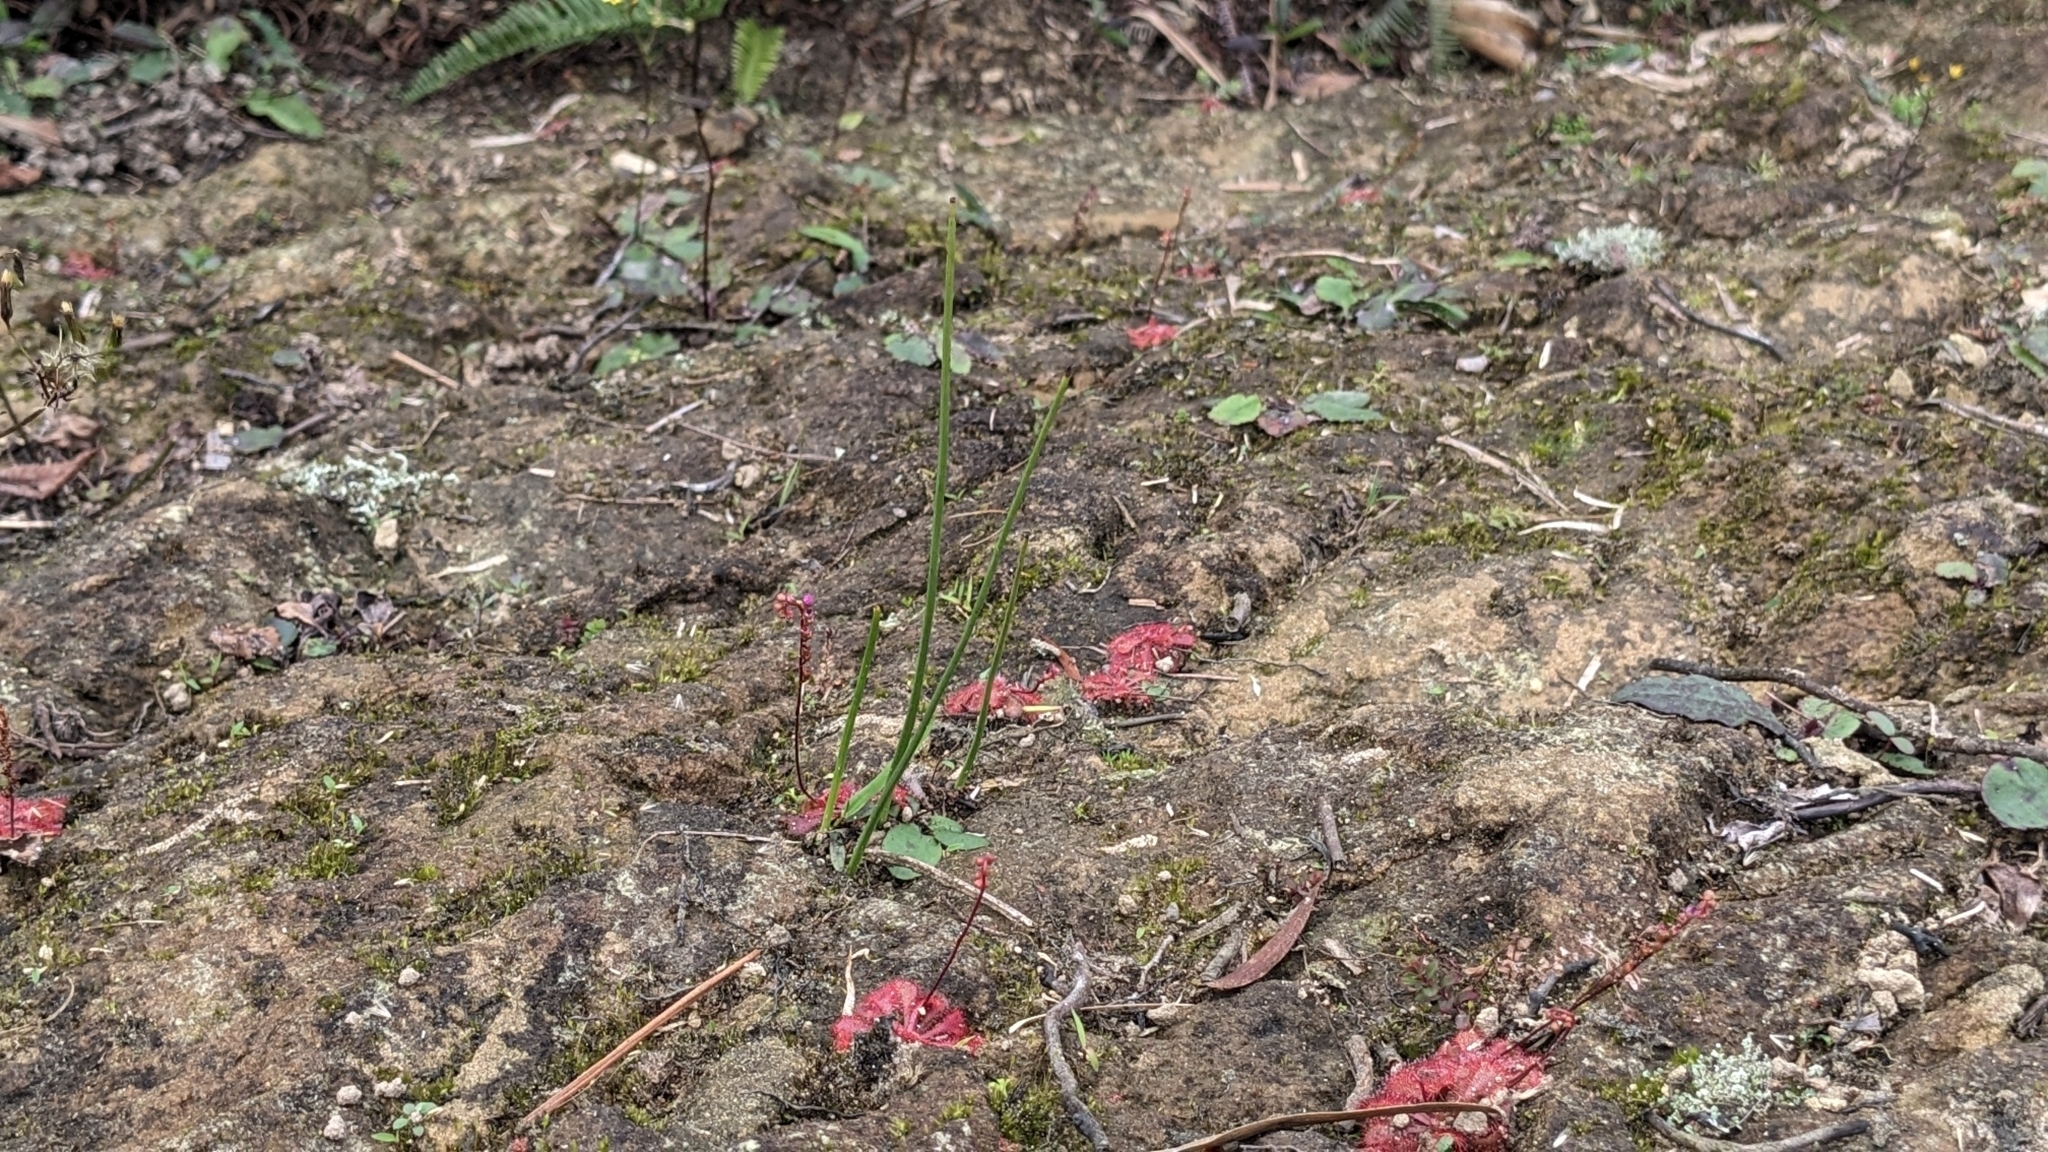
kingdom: Plantae
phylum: Tracheophyta
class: Liliopsida
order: Asparagales
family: Orchidaceae
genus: Microtis
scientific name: Microtis unifolia
